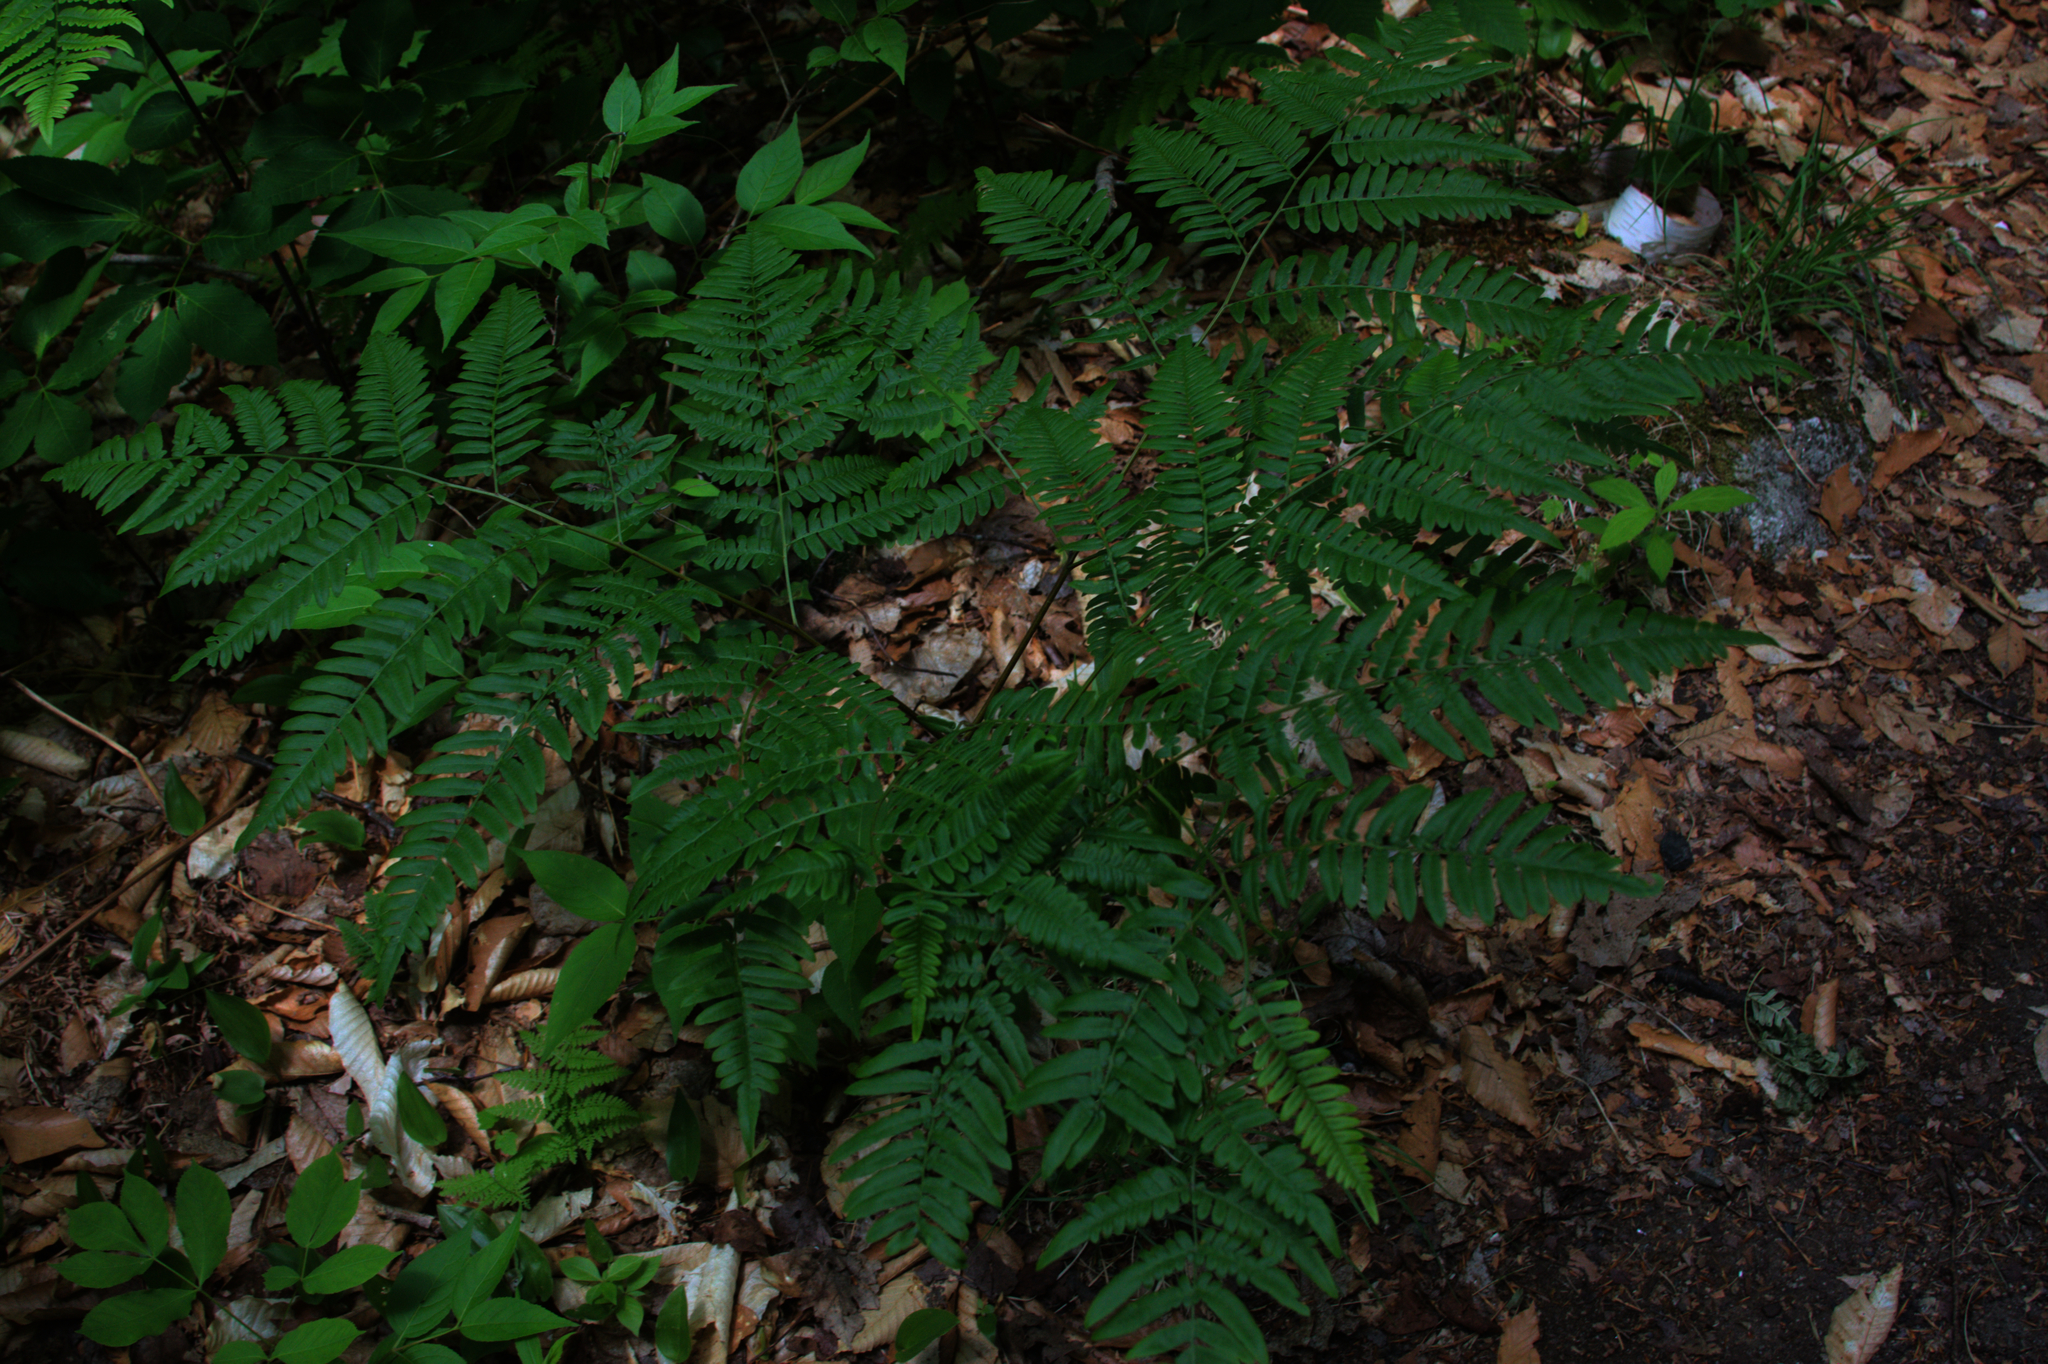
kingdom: Plantae
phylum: Tracheophyta
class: Polypodiopsida
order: Polypodiales
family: Dennstaedtiaceae
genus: Pteridium
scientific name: Pteridium aquilinum
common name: Bracken
